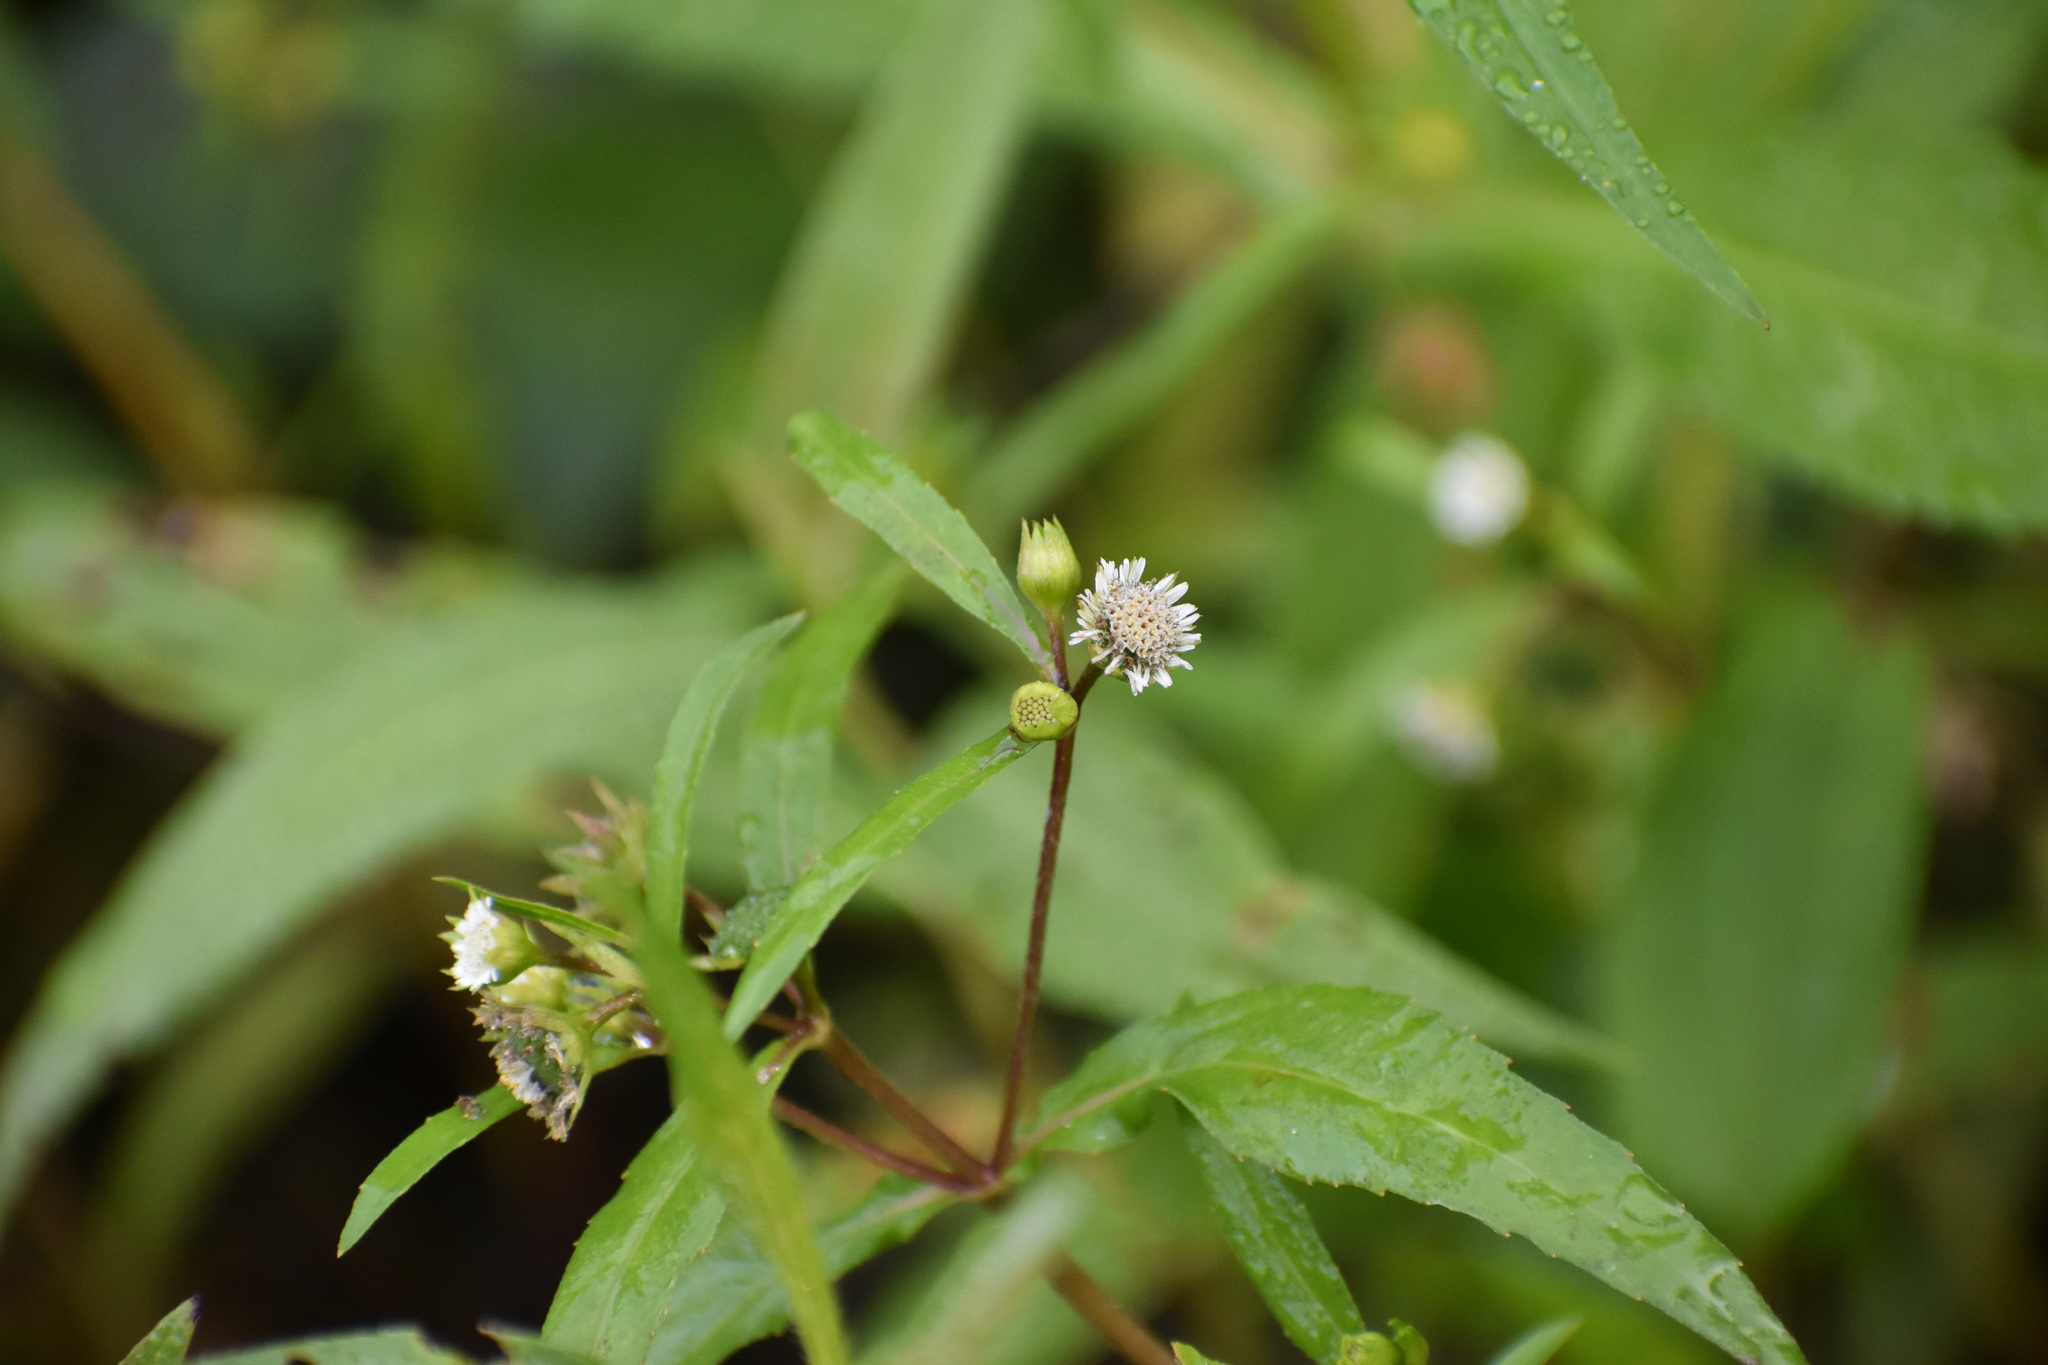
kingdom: Plantae
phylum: Tracheophyta
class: Magnoliopsida
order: Asterales
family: Asteraceae
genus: Eclipta
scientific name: Eclipta prostrata
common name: False daisy
